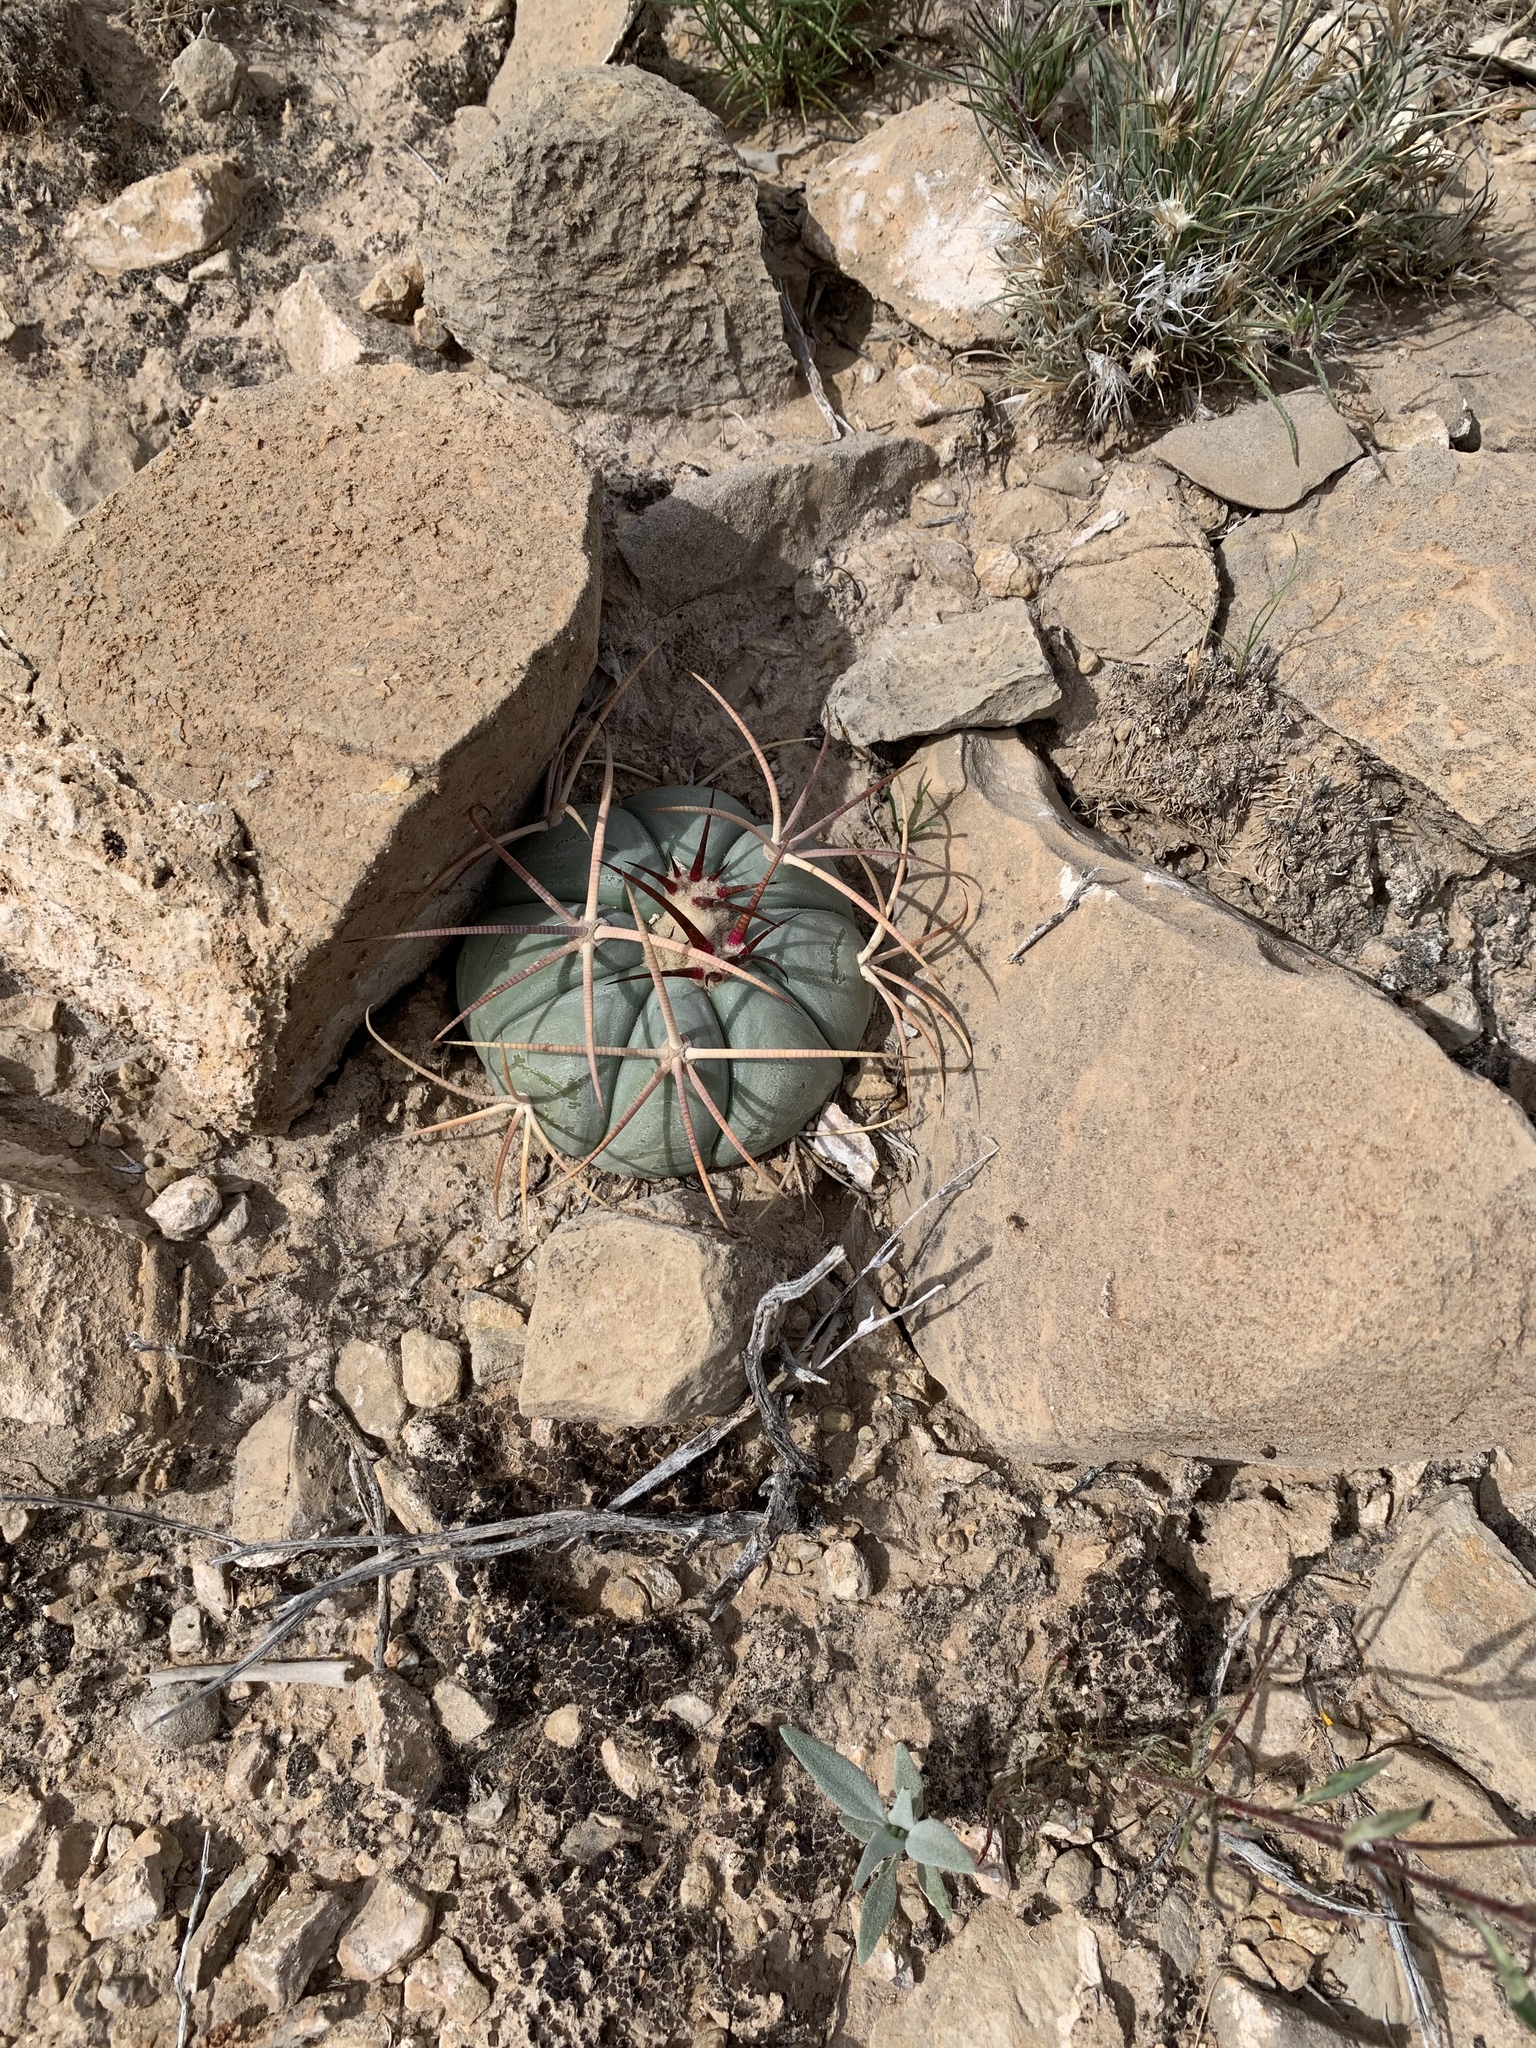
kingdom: Plantae
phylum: Tracheophyta
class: Magnoliopsida
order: Caryophyllales
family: Cactaceae
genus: Echinocactus
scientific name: Echinocactus horizonthalonius
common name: Devilshead
